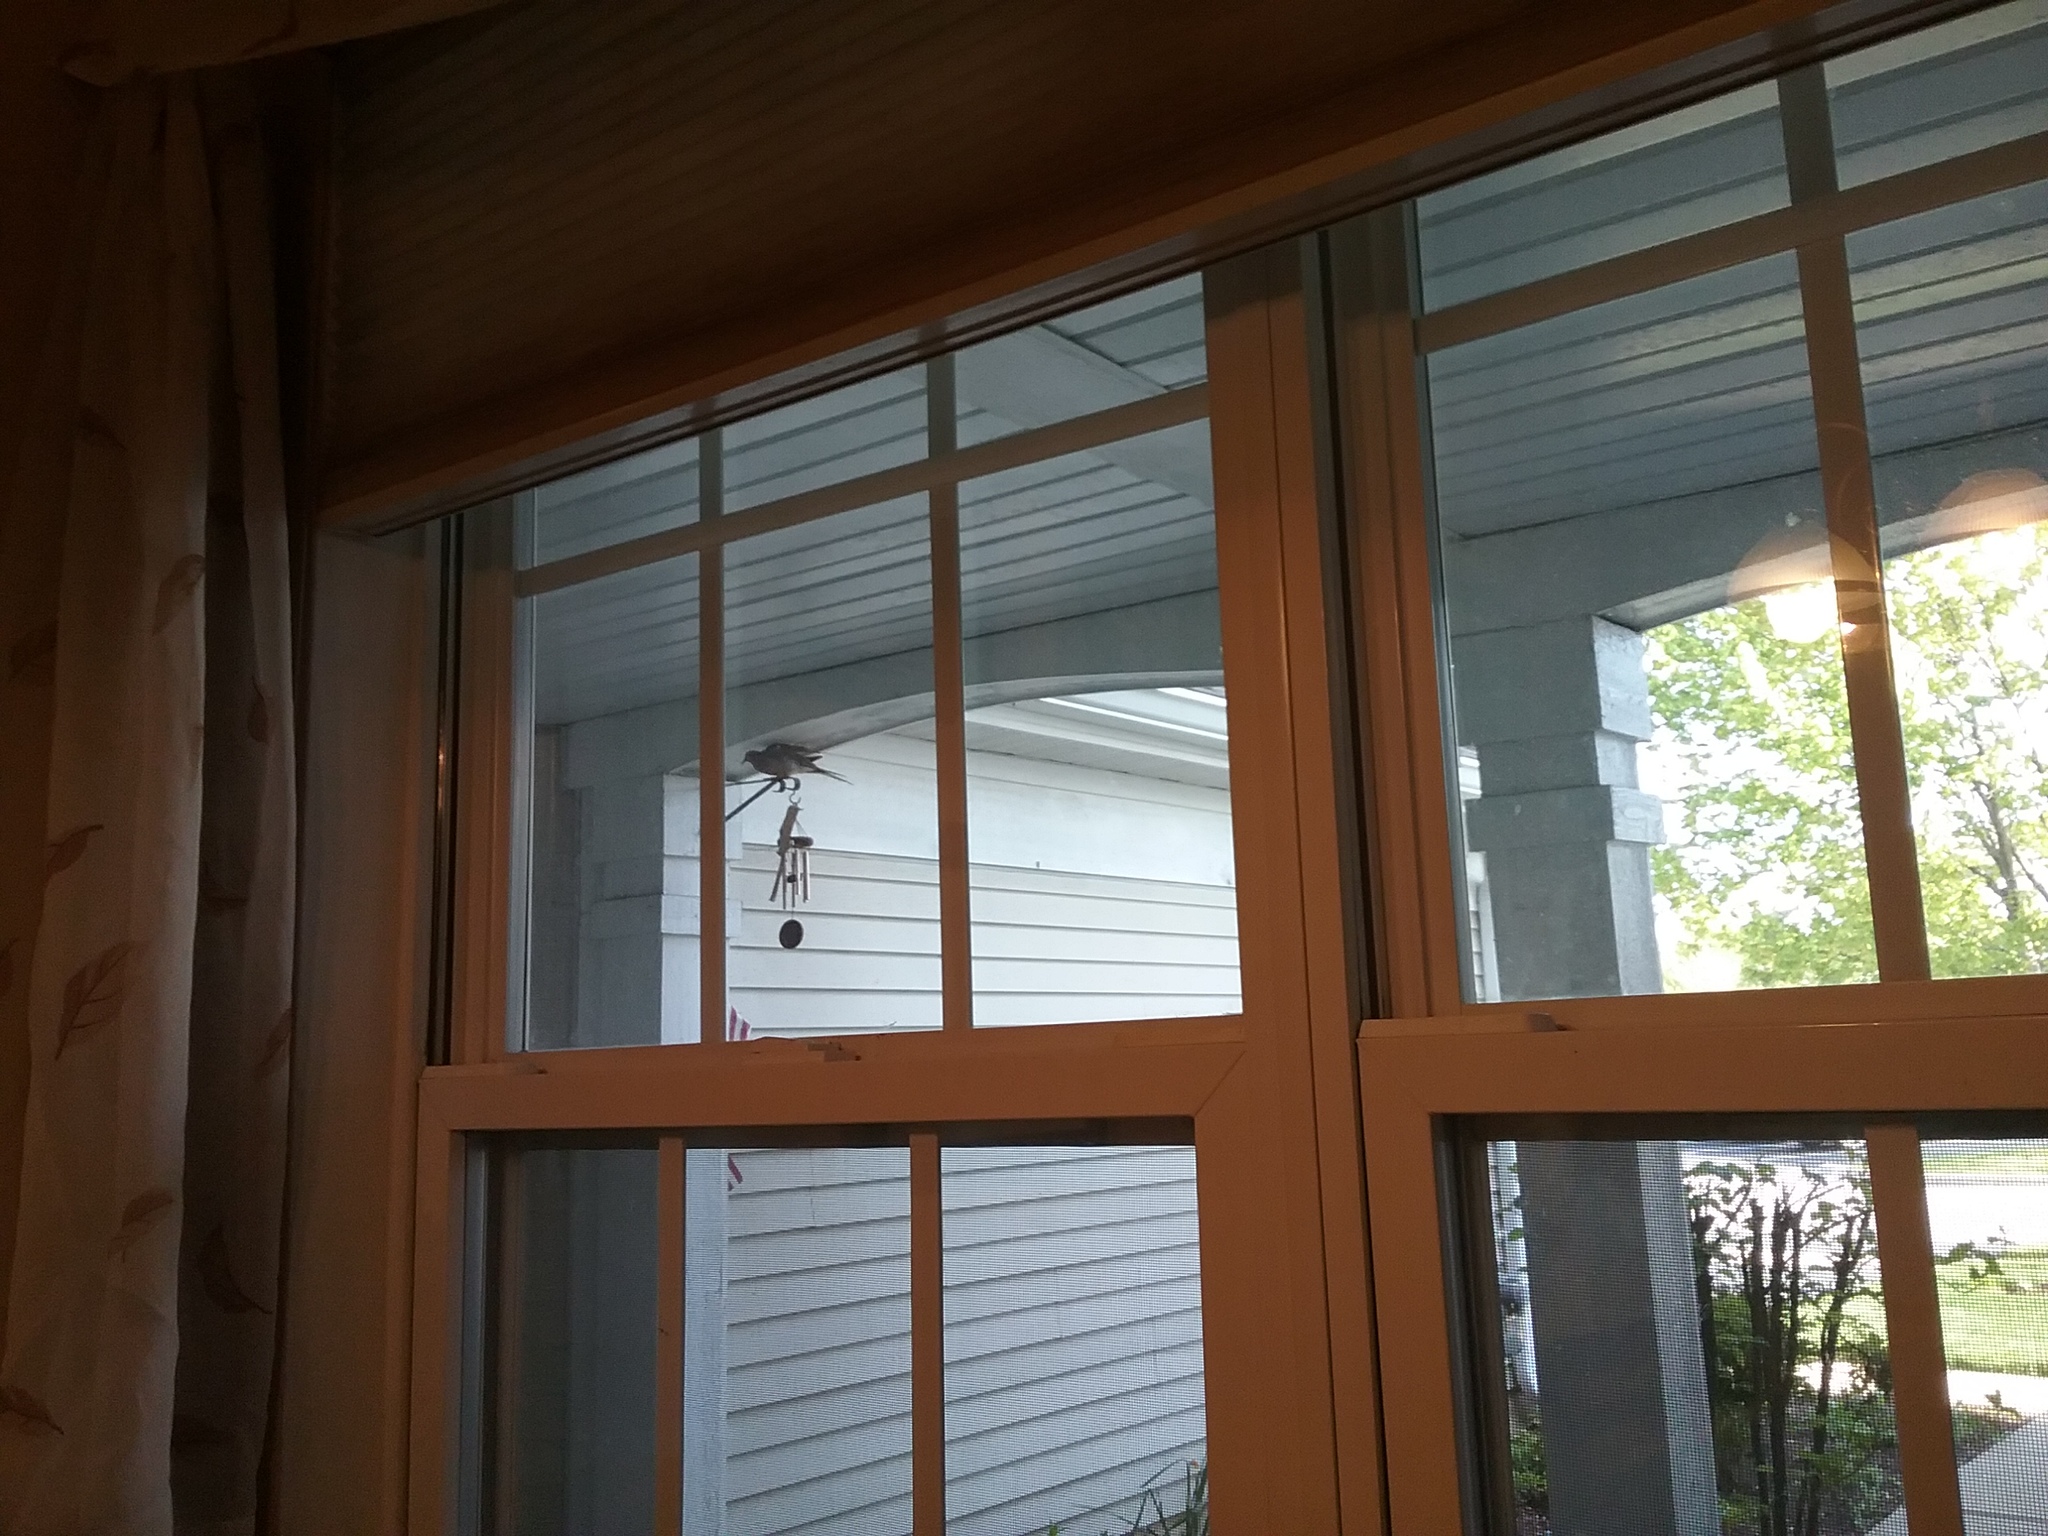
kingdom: Animalia
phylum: Chordata
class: Aves
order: Columbiformes
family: Columbidae
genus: Zenaida
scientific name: Zenaida macroura
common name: Mourning dove
